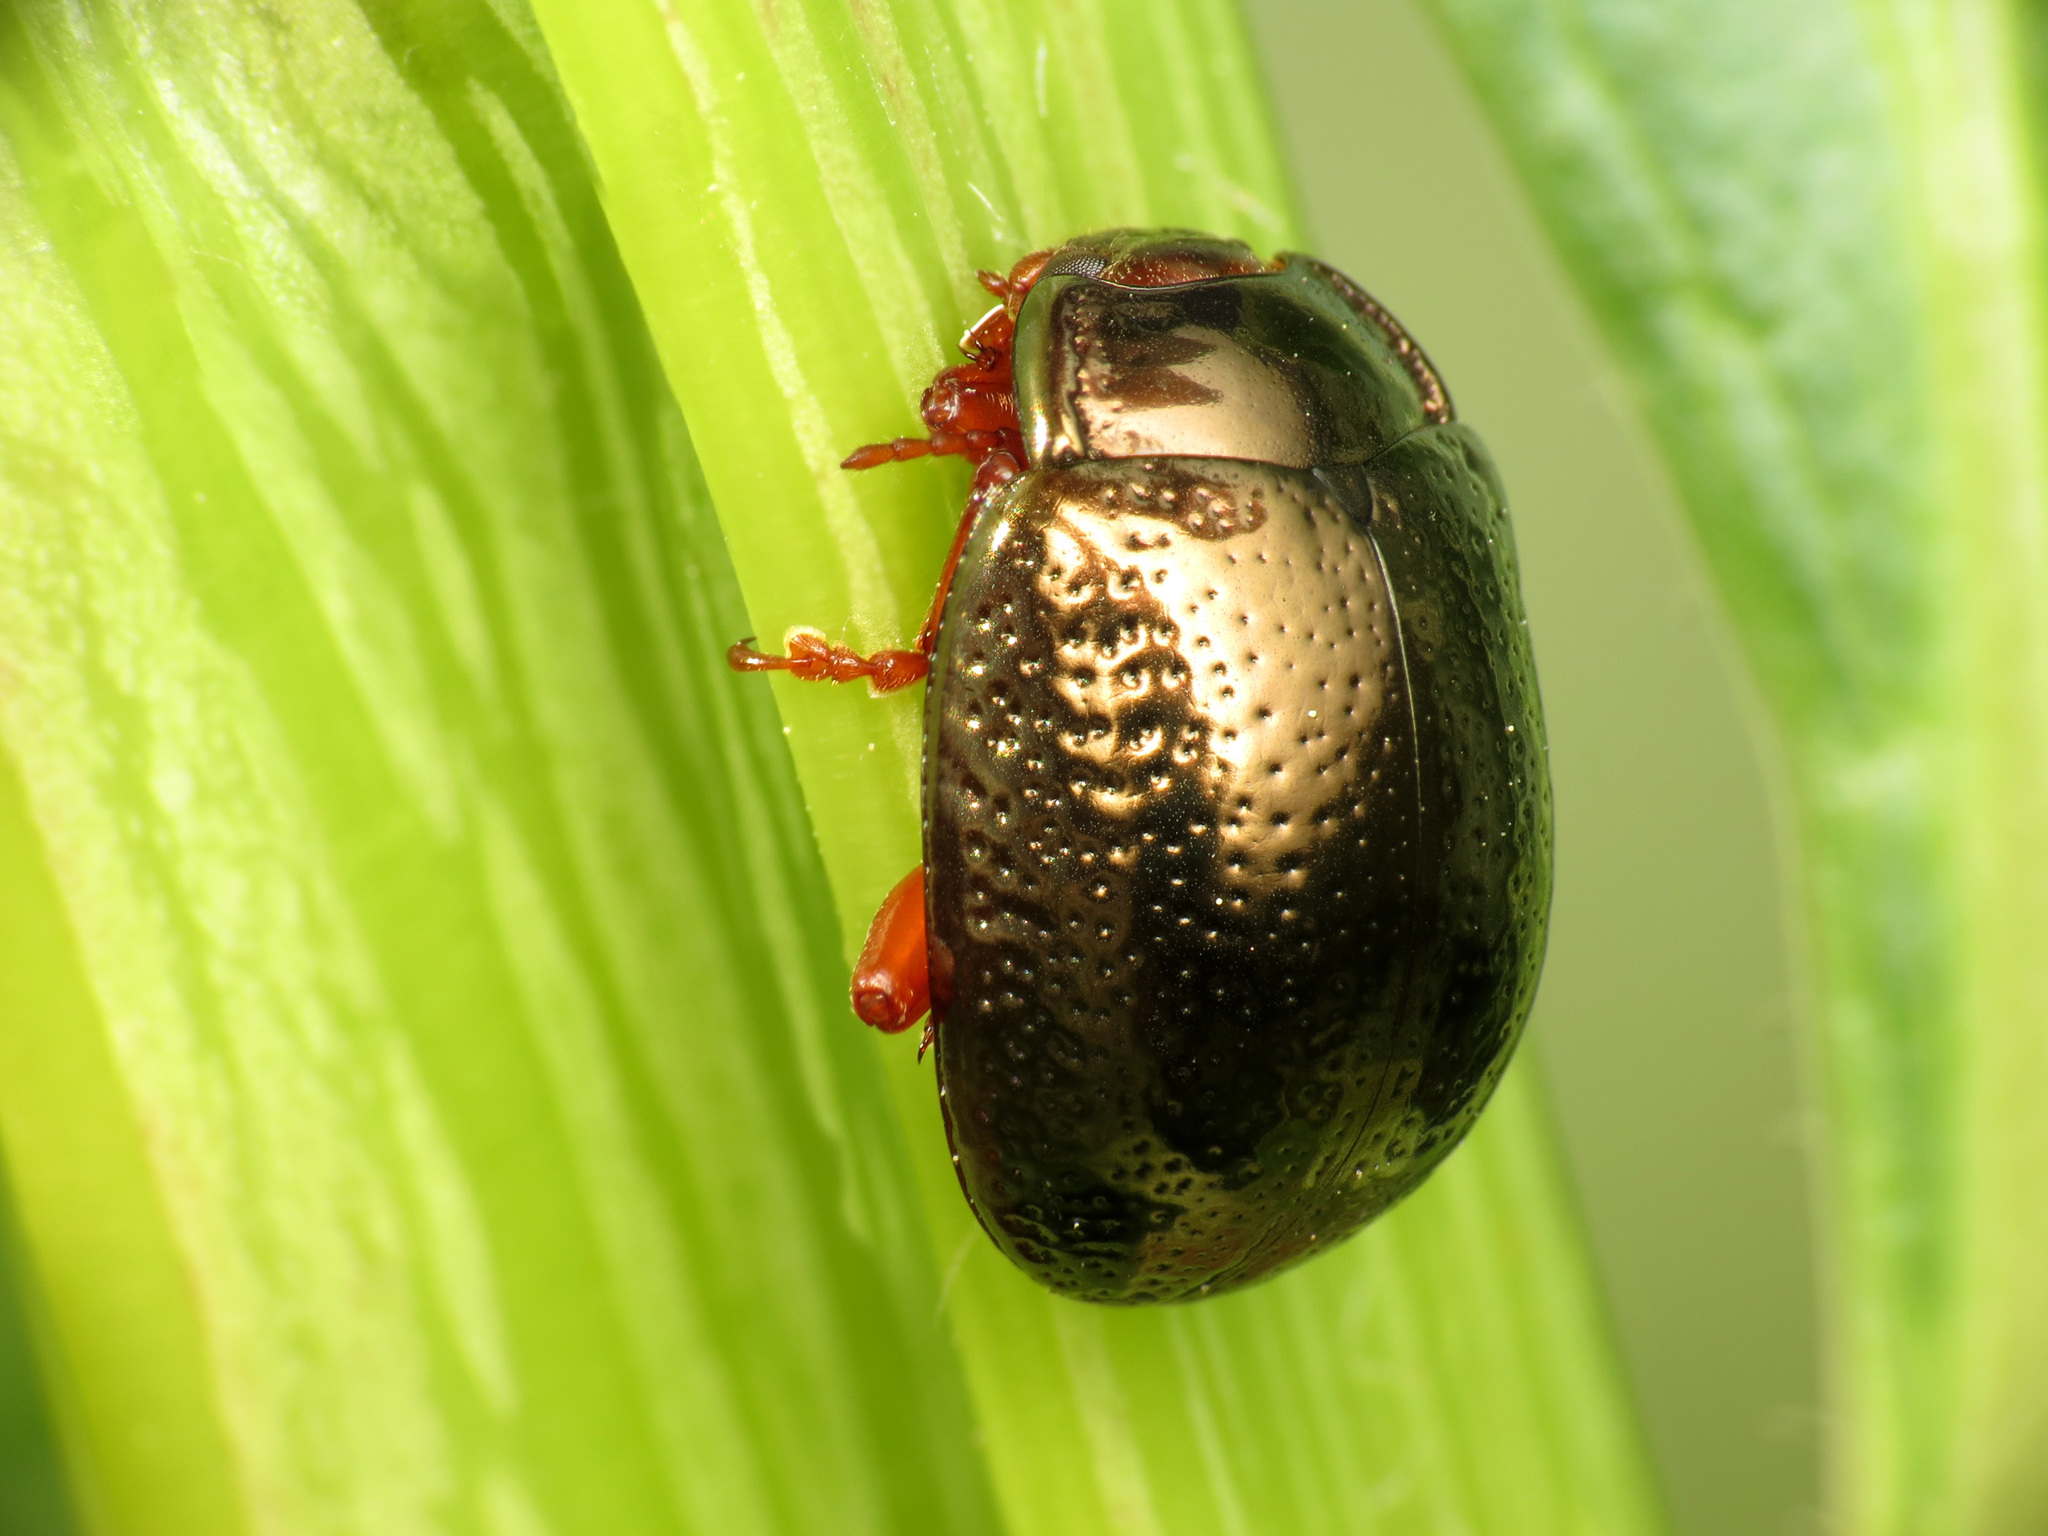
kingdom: Animalia
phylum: Arthropoda
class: Insecta
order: Coleoptera
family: Chrysomelidae
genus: Chrysolina
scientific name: Chrysolina bankii
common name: Leaf beetle
